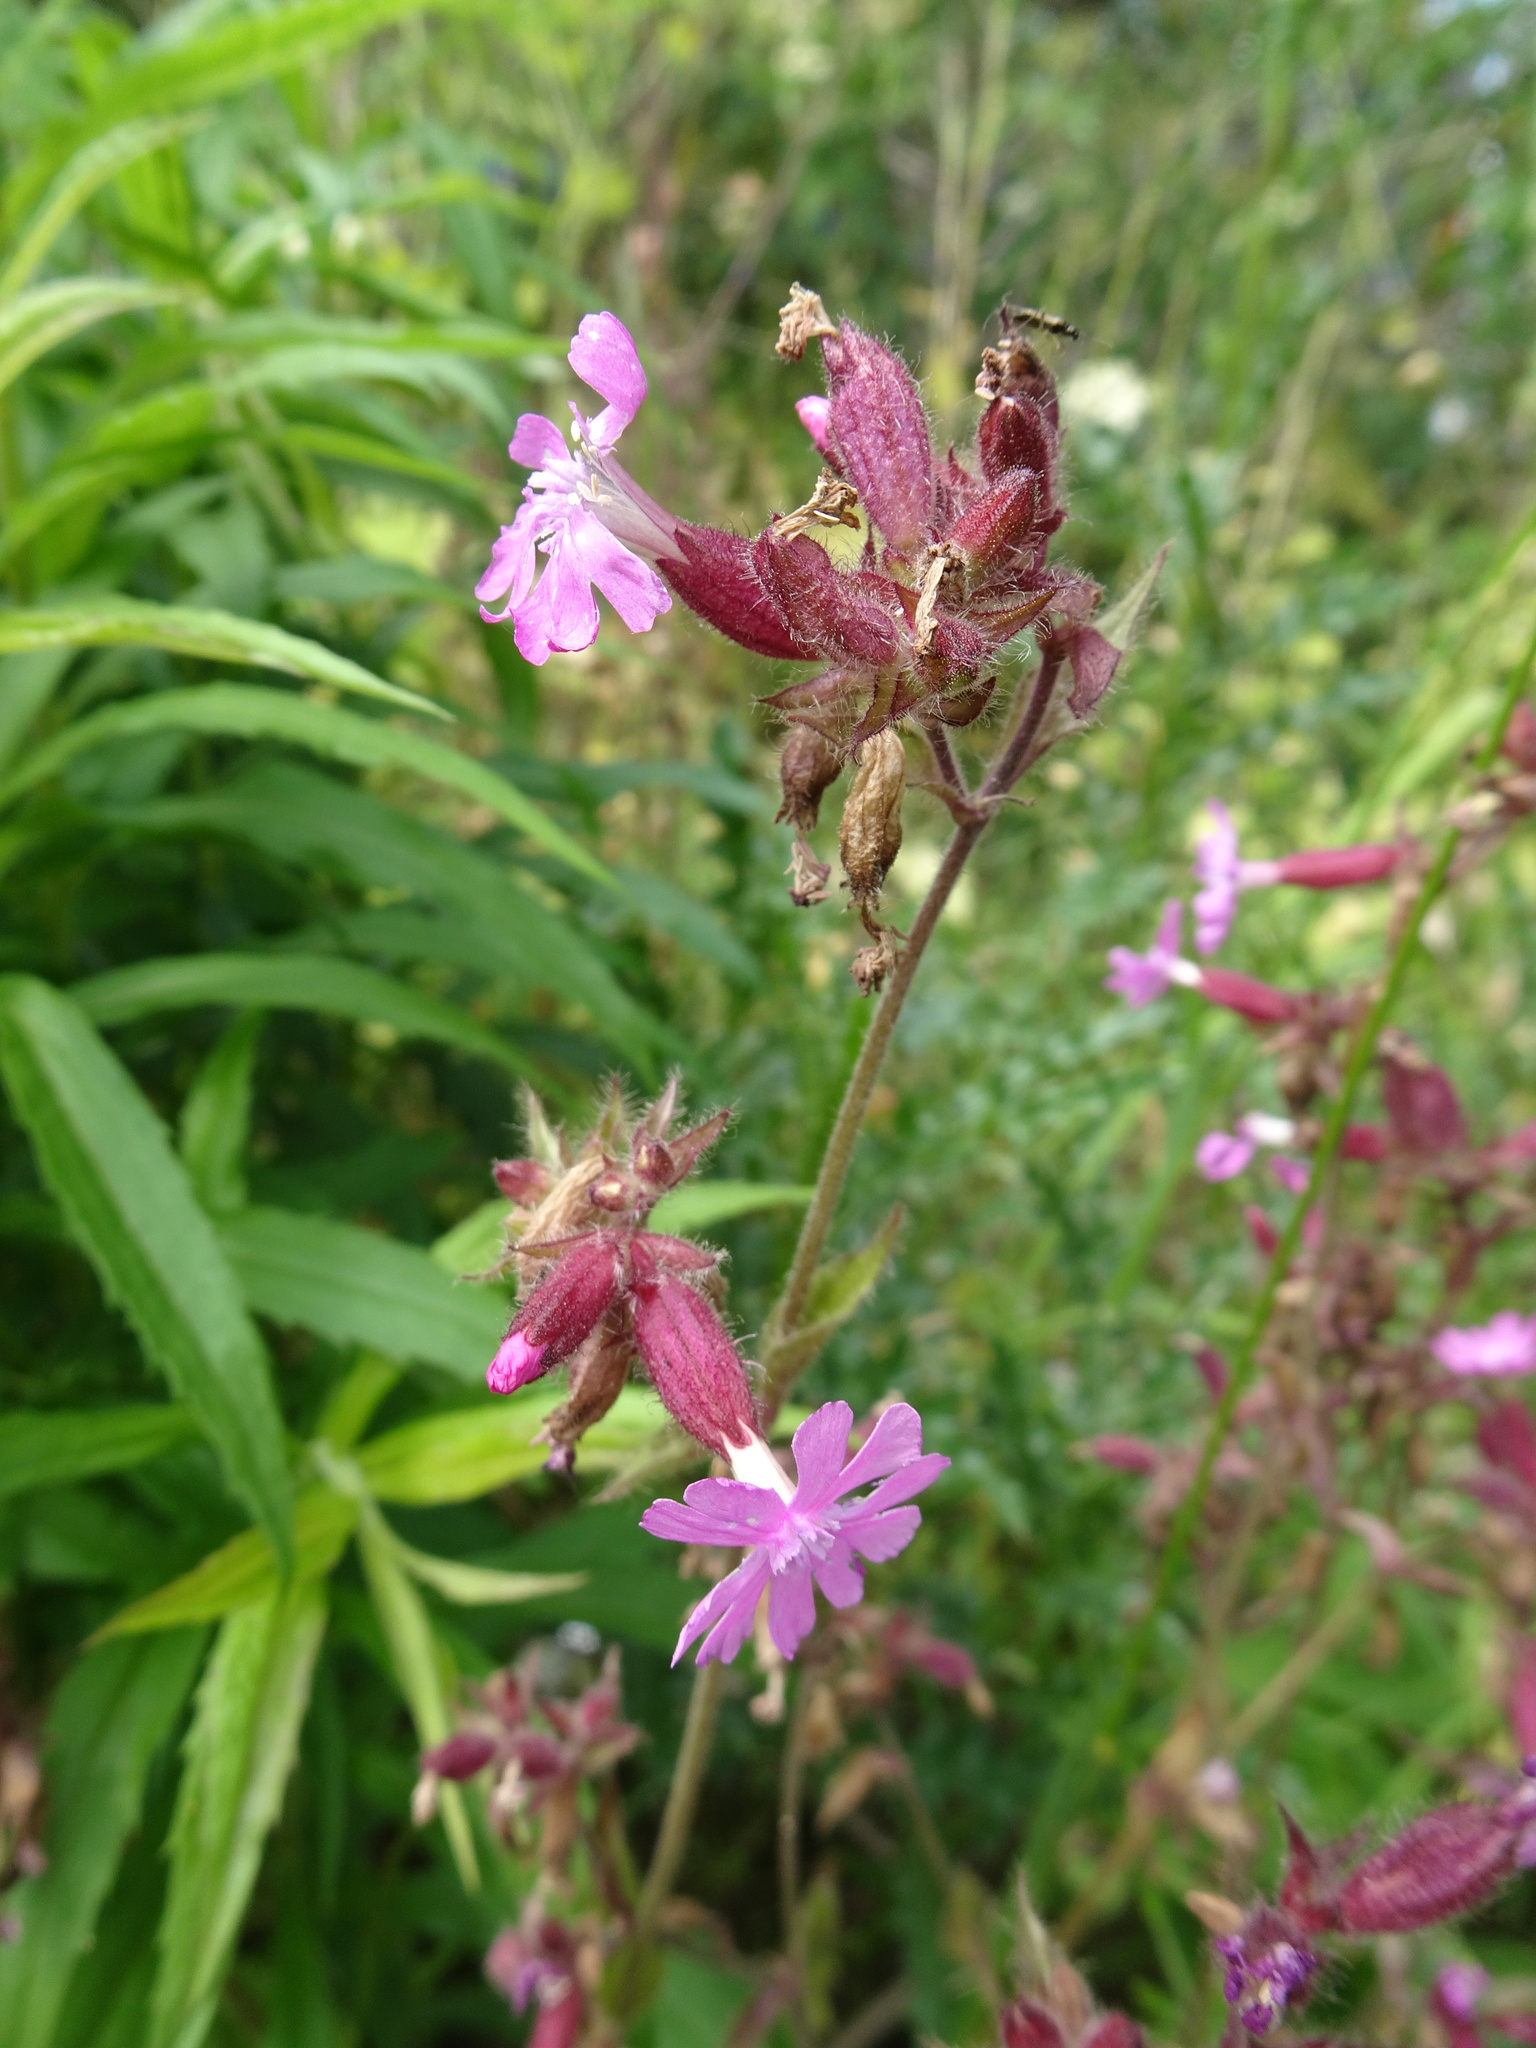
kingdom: Plantae
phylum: Tracheophyta
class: Magnoliopsida
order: Caryophyllales
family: Caryophyllaceae
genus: Silene
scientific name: Silene dioica
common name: Red campion
